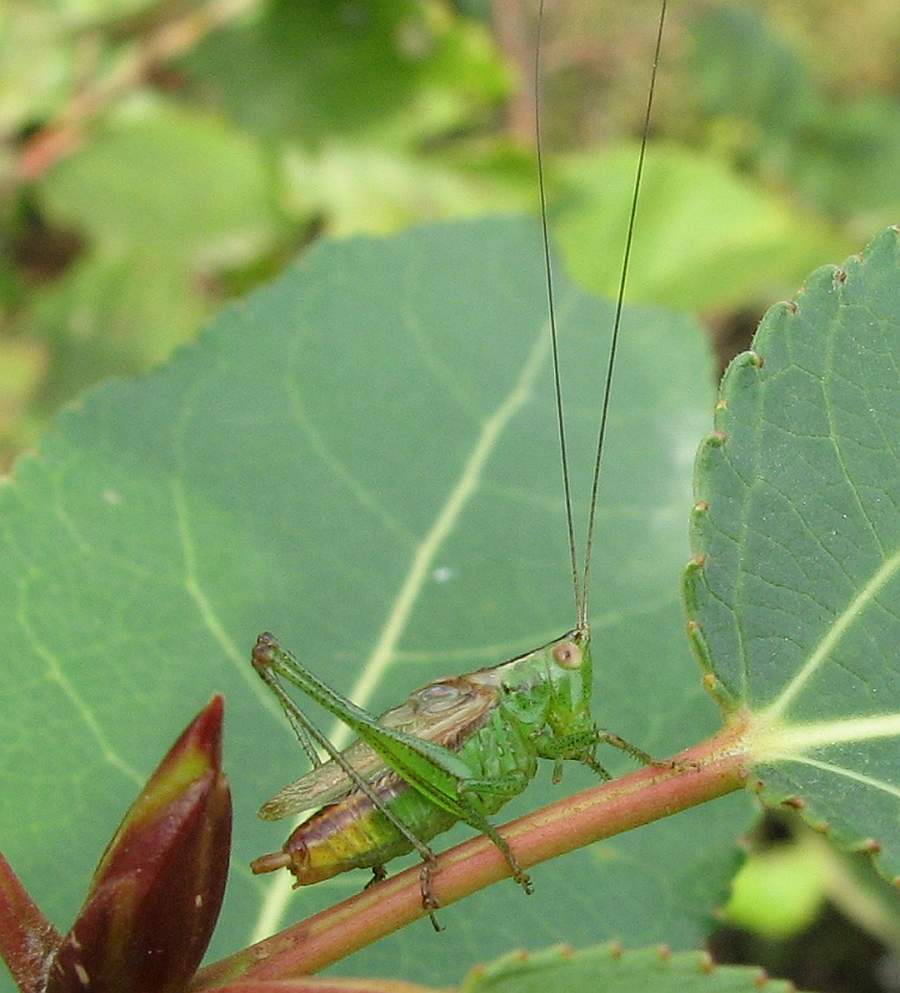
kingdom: Animalia
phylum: Arthropoda
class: Insecta
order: Orthoptera
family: Tettigoniidae
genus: Conocephalus
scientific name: Conocephalus brevipennis
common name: Short-winged meadow katydid
